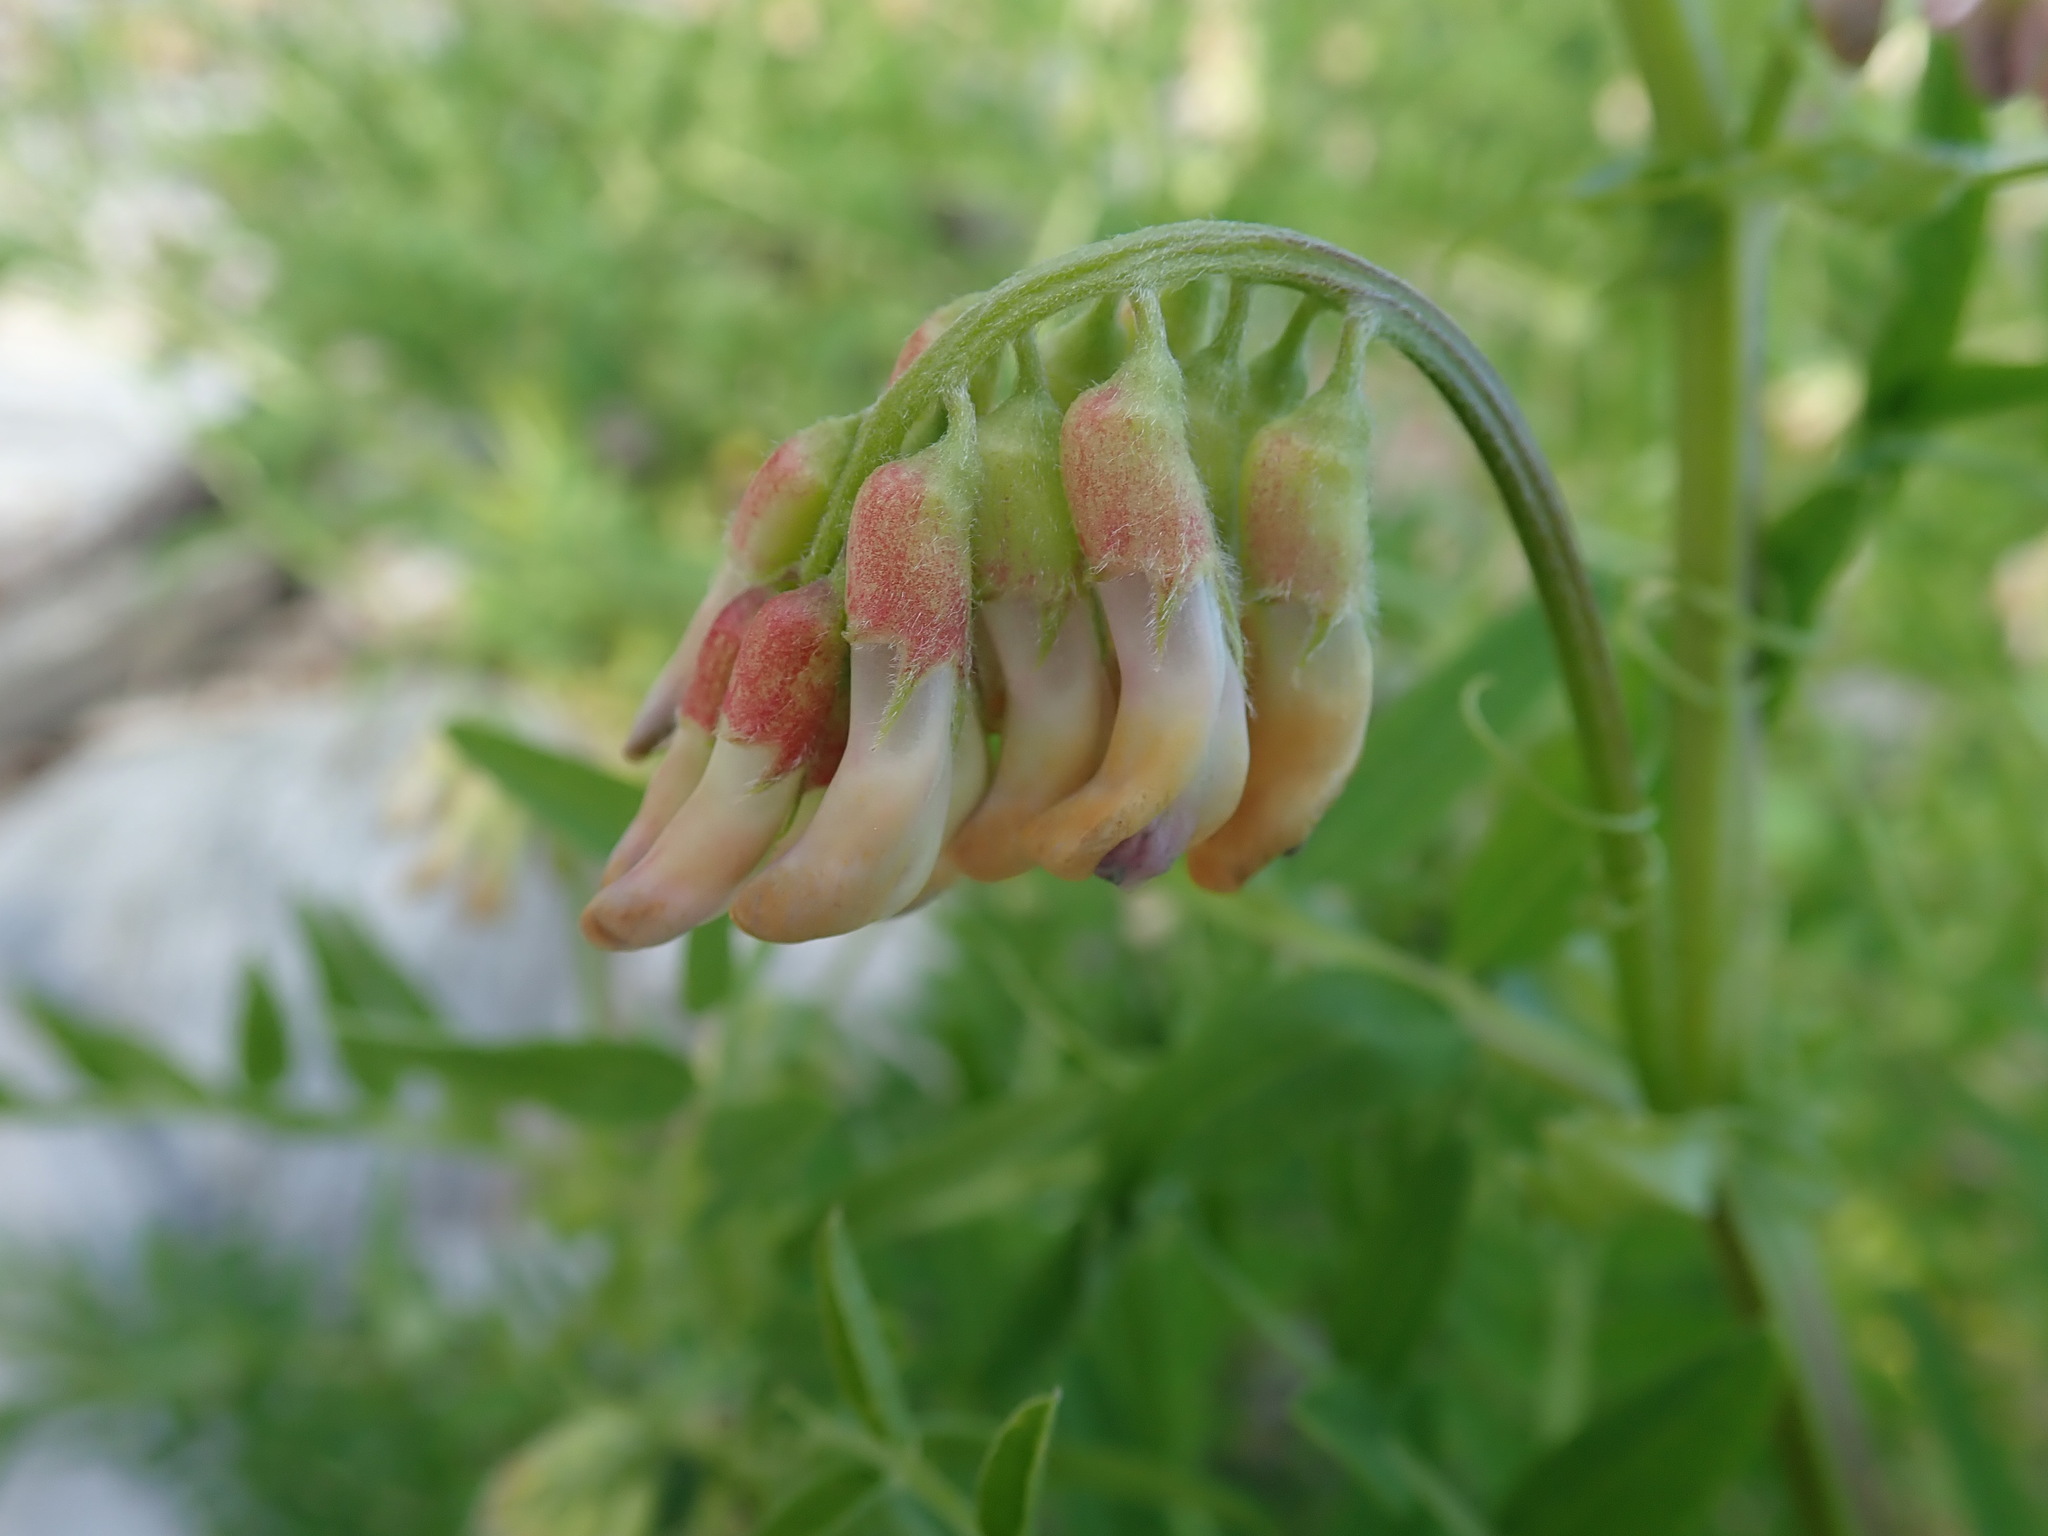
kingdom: Plantae
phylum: Tracheophyta
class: Magnoliopsida
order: Fabales
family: Fabaceae
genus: Vicia
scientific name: Vicia
